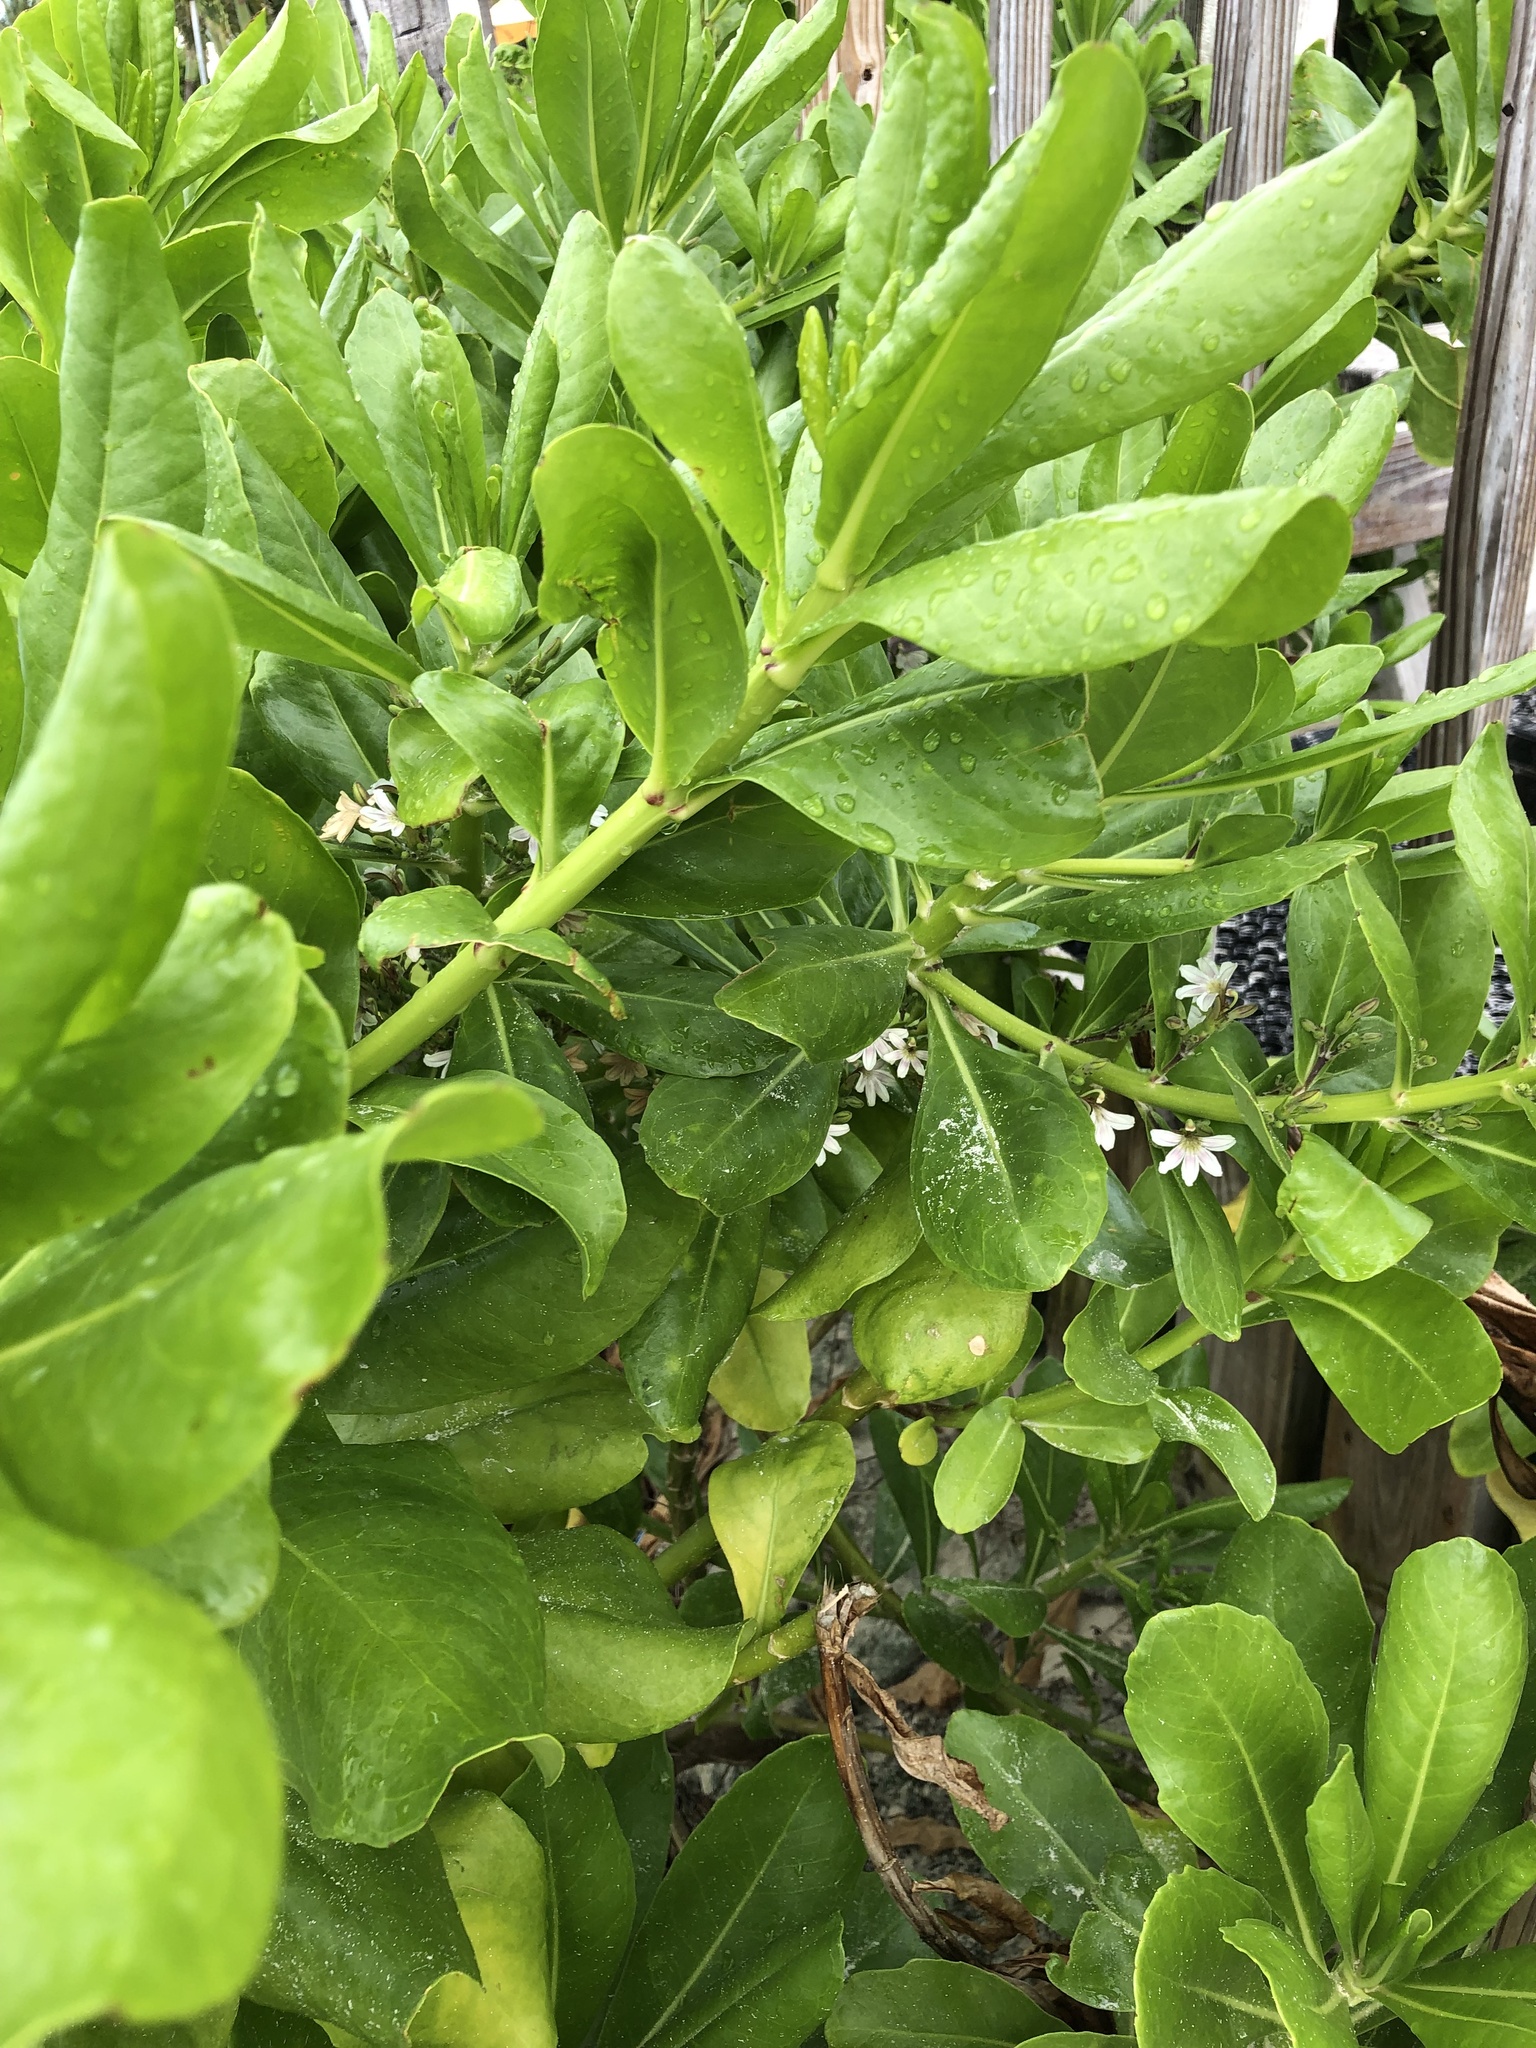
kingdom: Plantae
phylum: Tracheophyta
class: Magnoliopsida
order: Asterales
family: Goodeniaceae
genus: Scaevola
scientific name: Scaevola taccada
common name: Sea lettucetree
